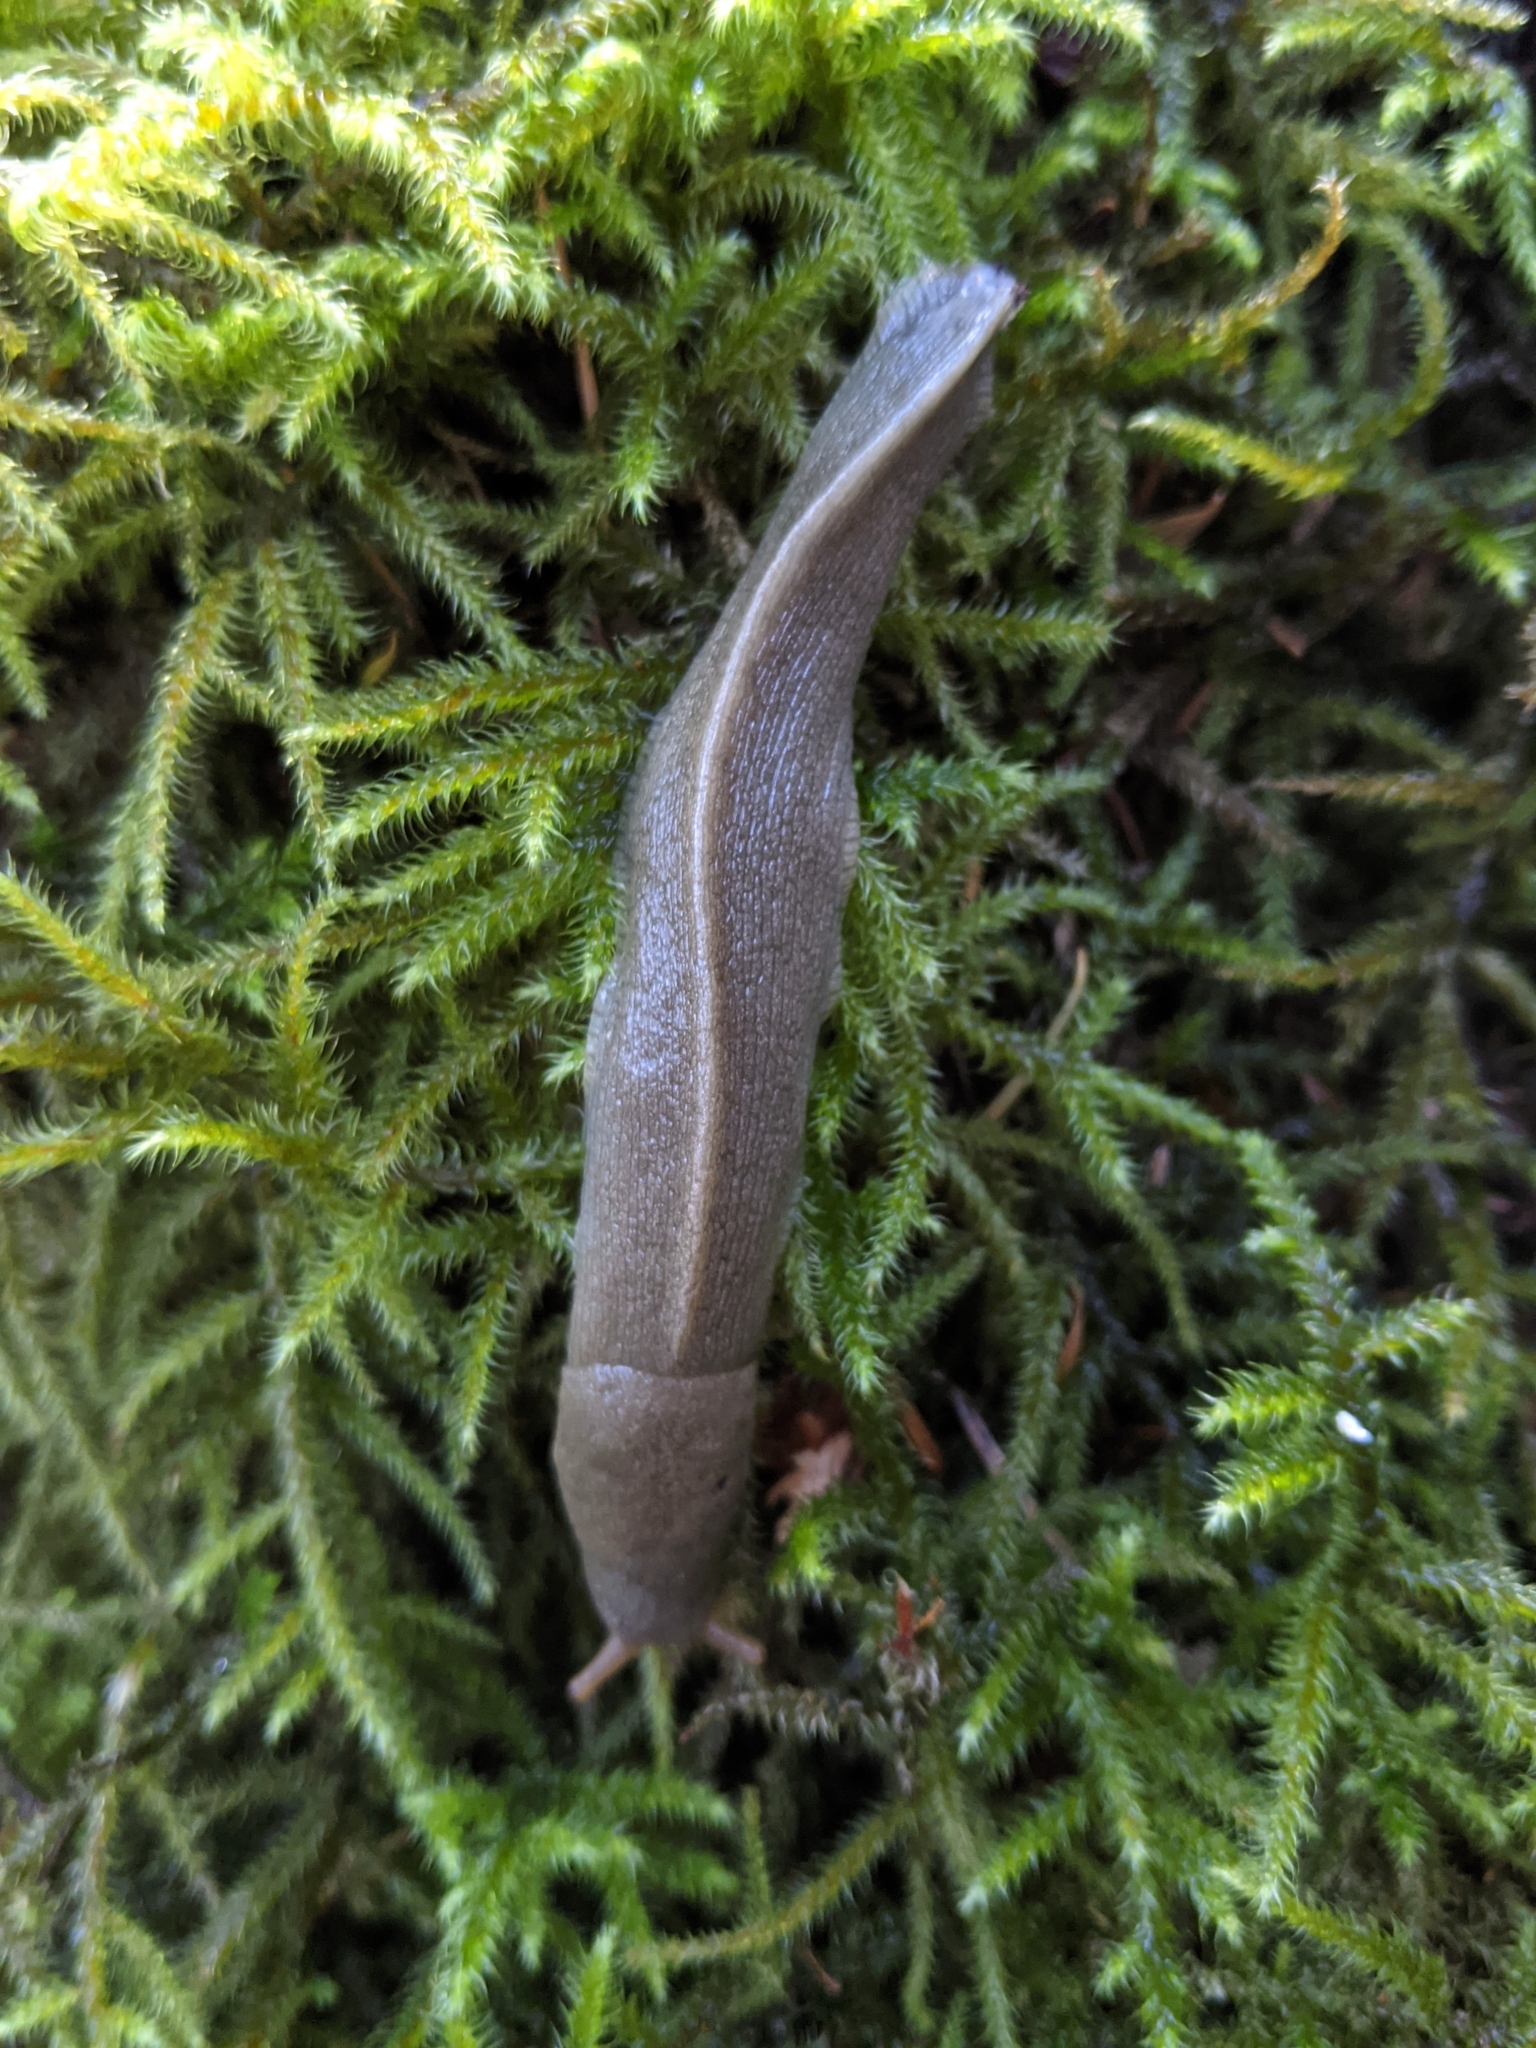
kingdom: Animalia
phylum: Mollusca
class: Gastropoda
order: Stylommatophora
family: Ariolimacidae
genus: Ariolimax
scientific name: Ariolimax columbianus
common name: Pacific banana slug
